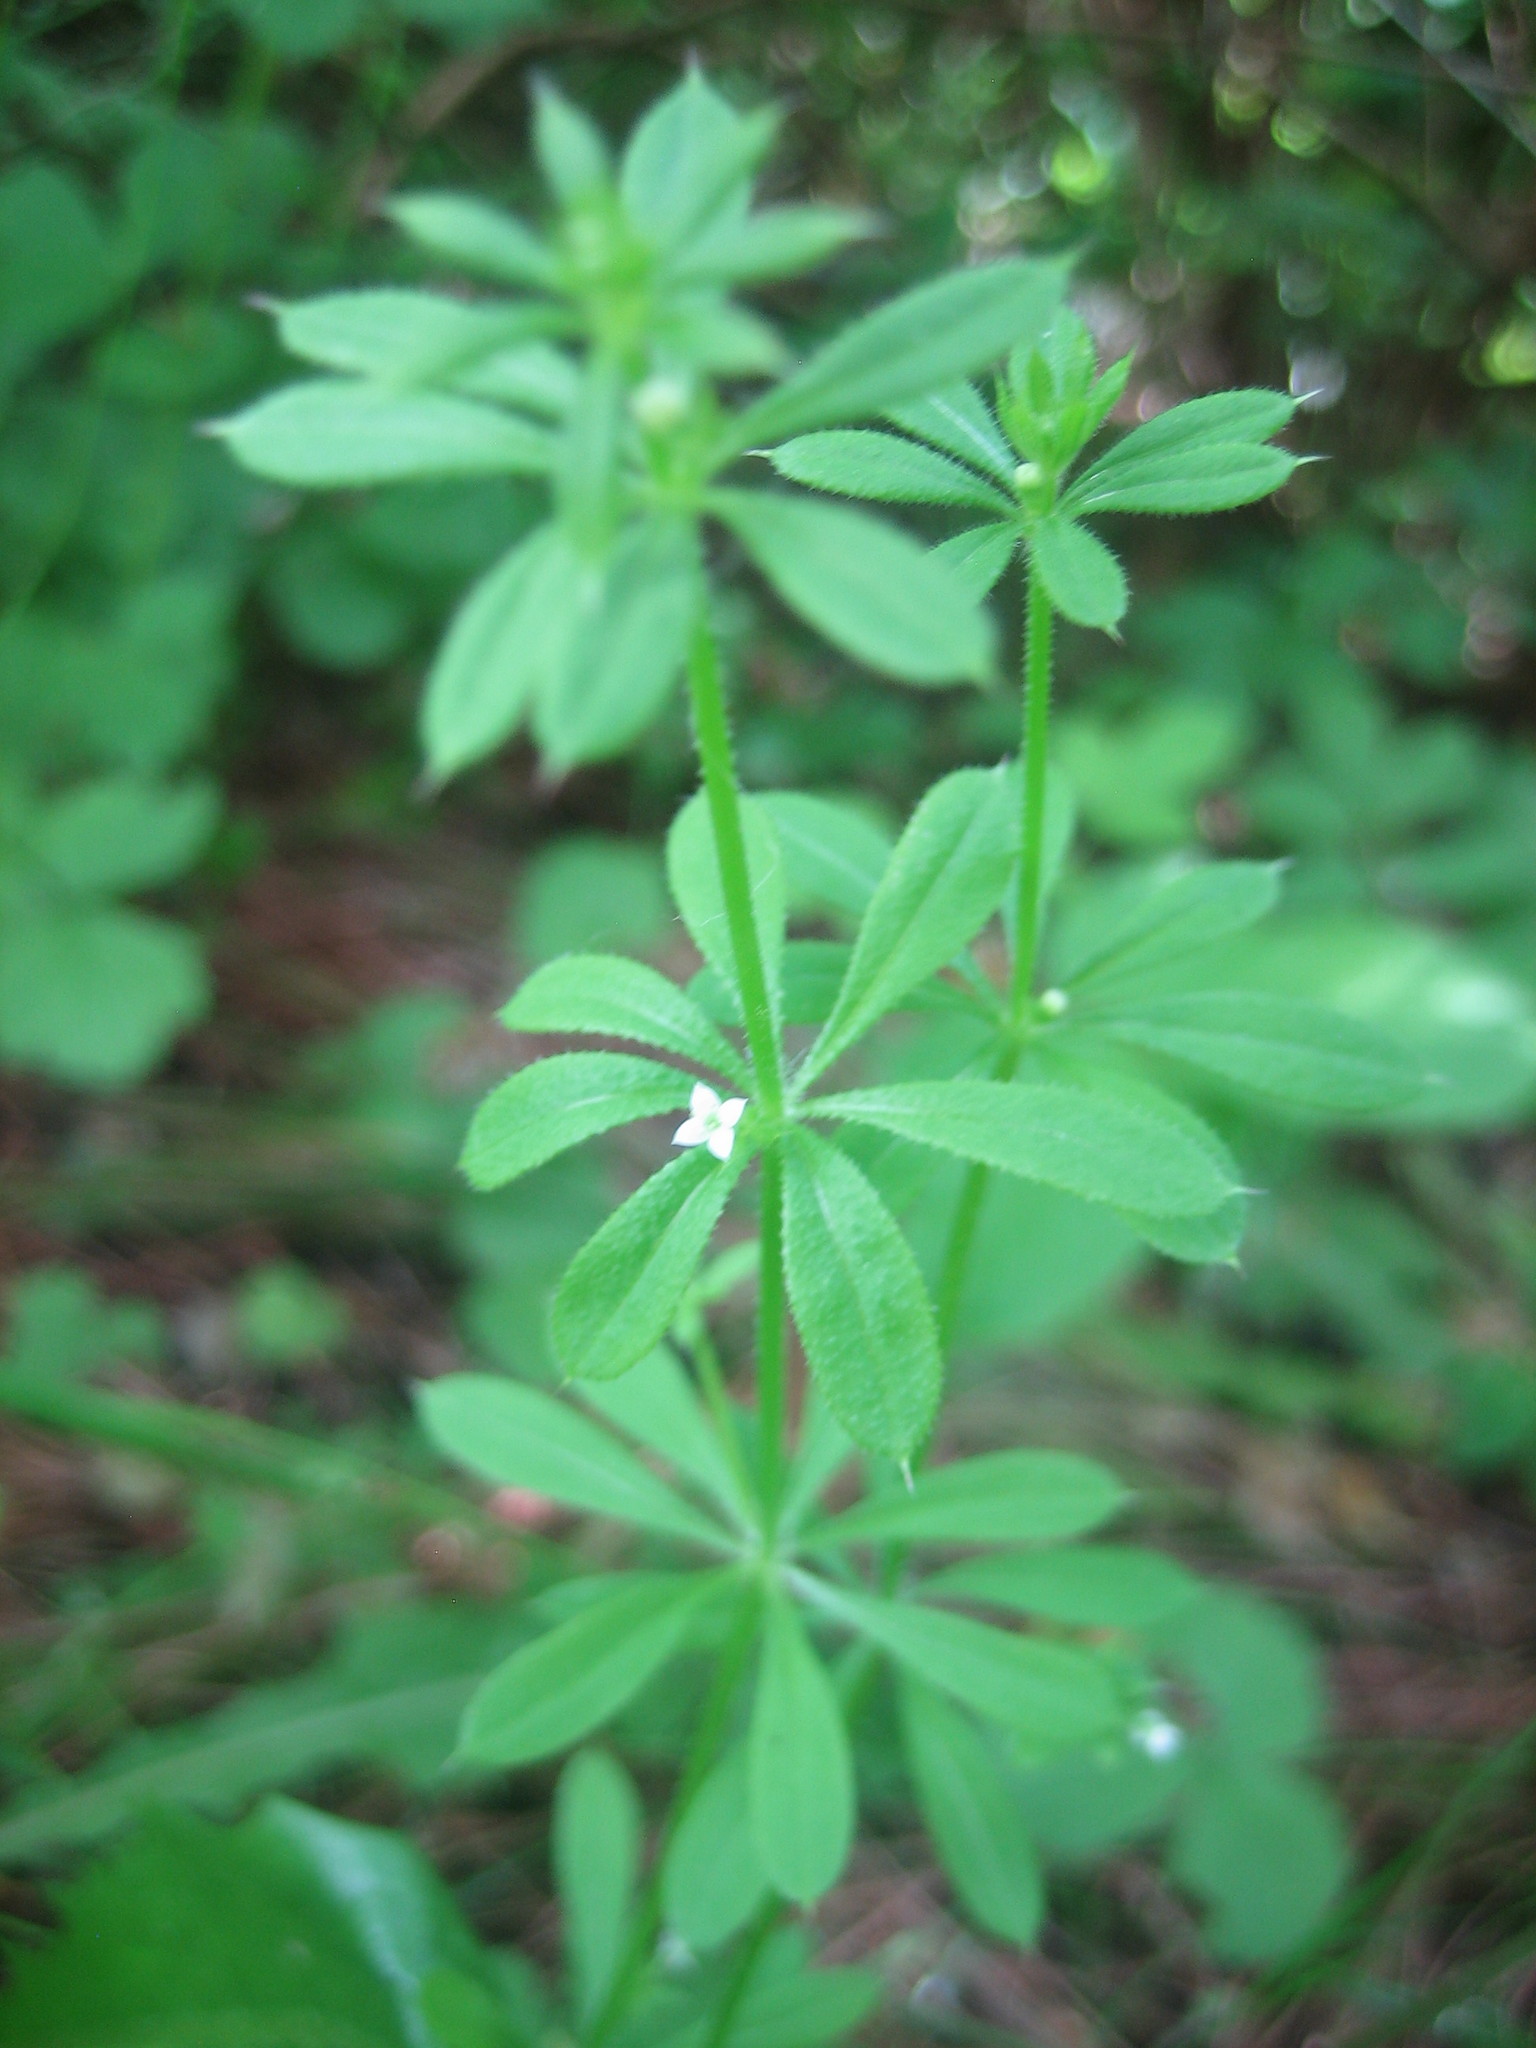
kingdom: Plantae
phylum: Tracheophyta
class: Magnoliopsida
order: Gentianales
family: Rubiaceae
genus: Galium
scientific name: Galium aparine
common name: Cleavers
